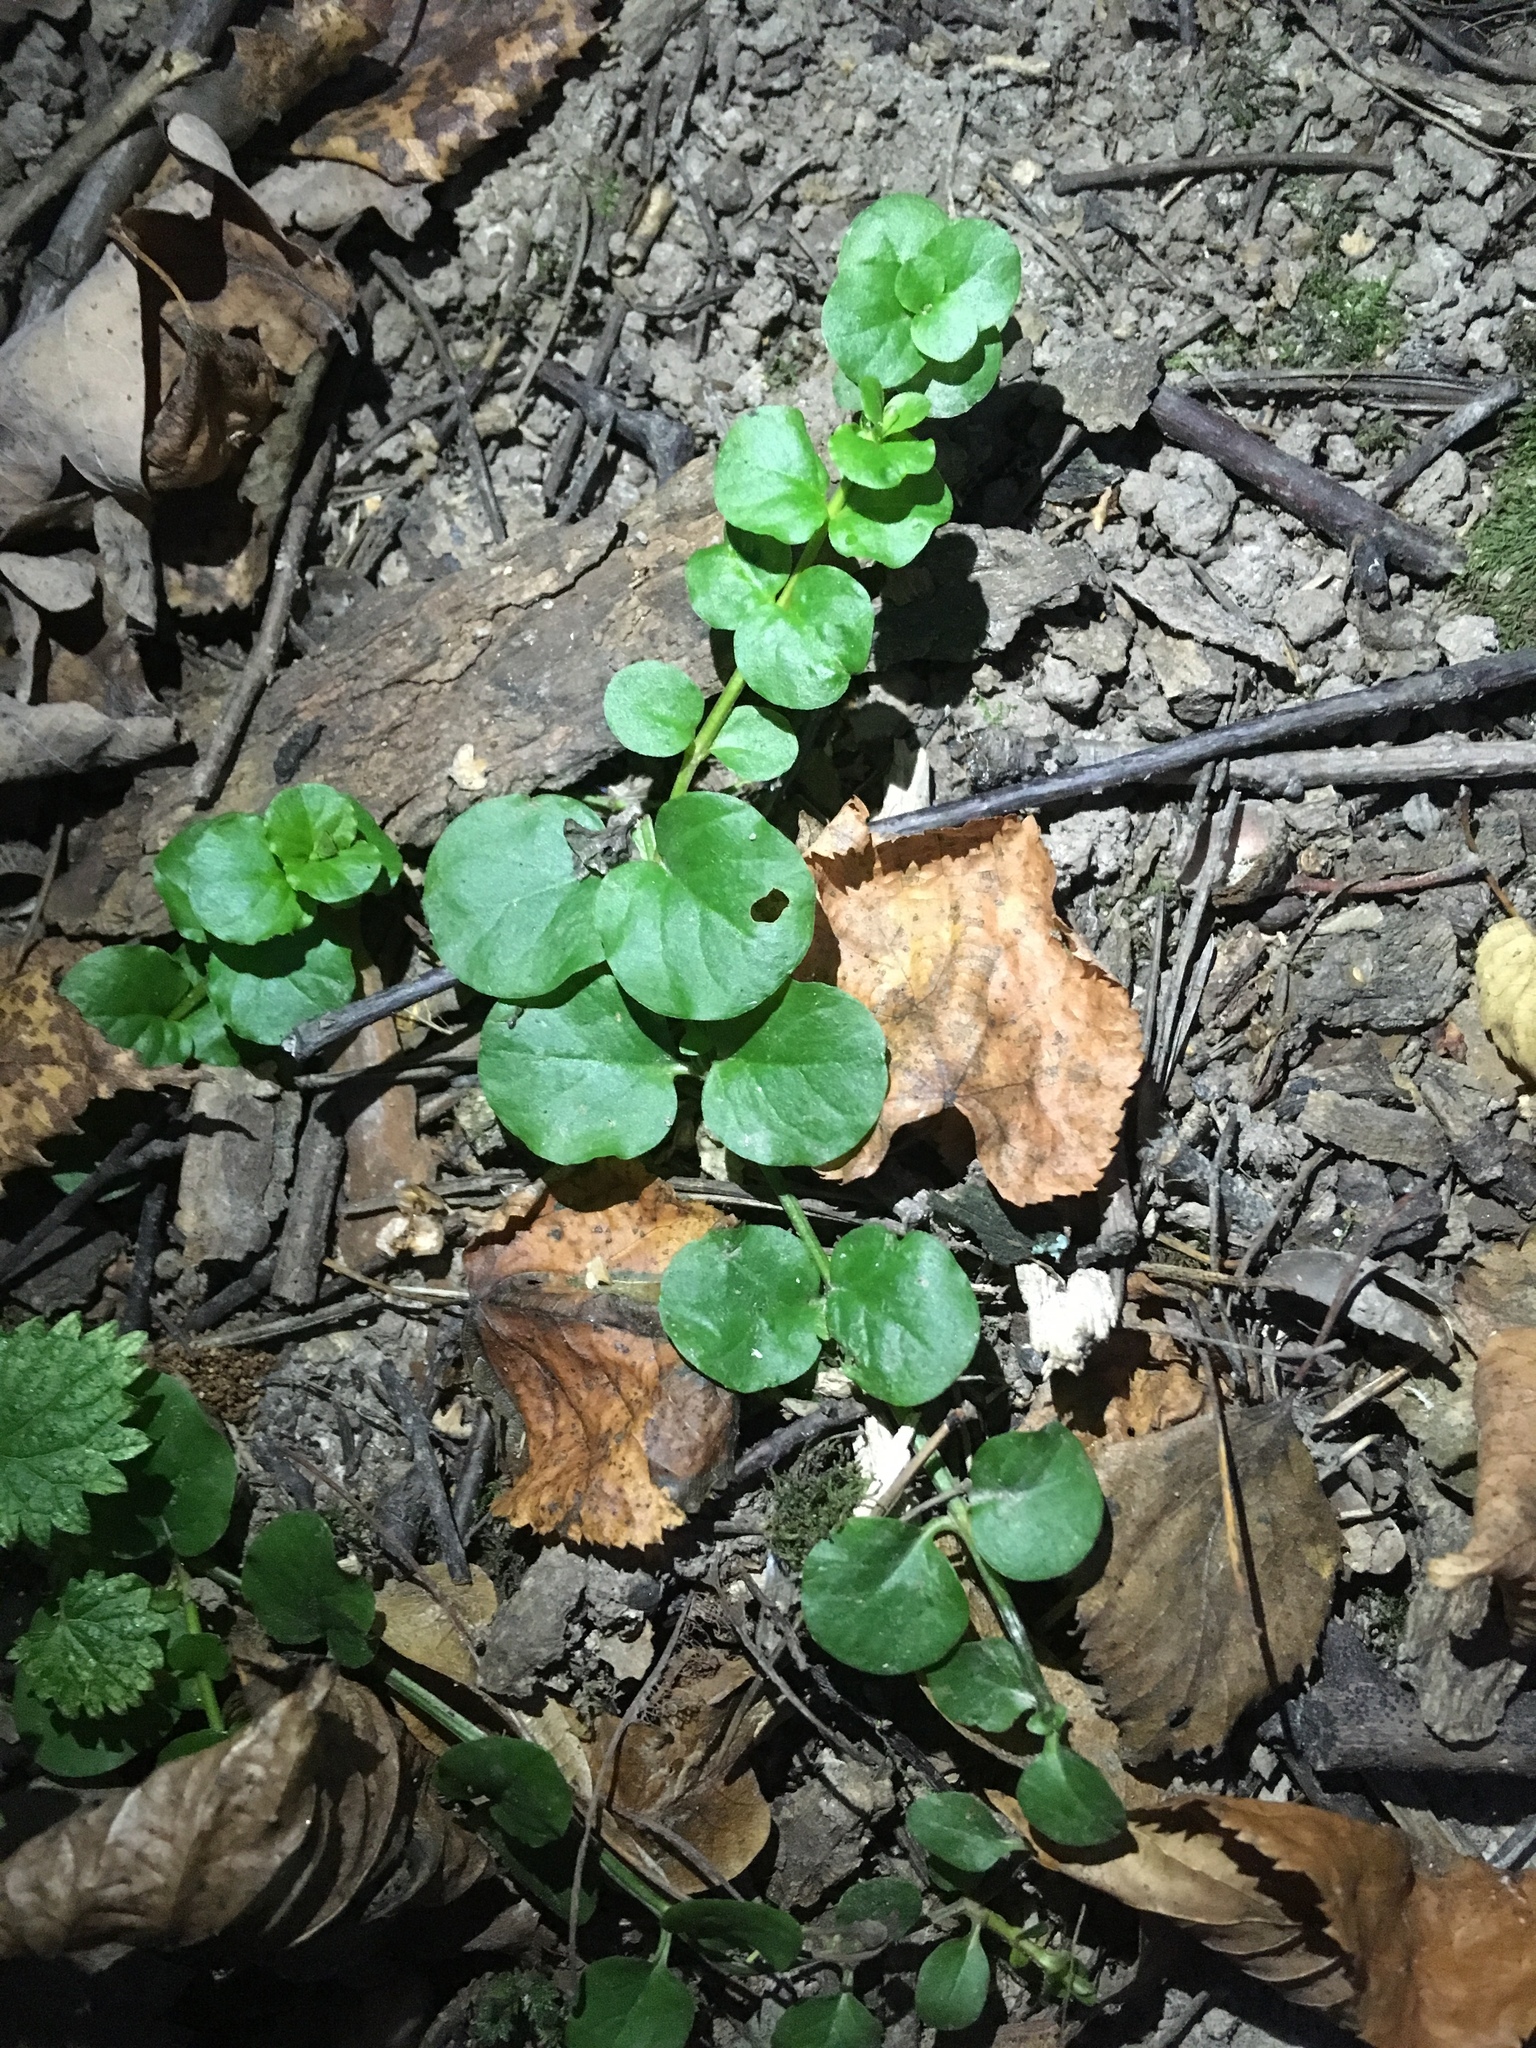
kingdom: Plantae
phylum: Tracheophyta
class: Magnoliopsida
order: Ericales
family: Primulaceae
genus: Lysimachia
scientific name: Lysimachia nummularia
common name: Moneywort
